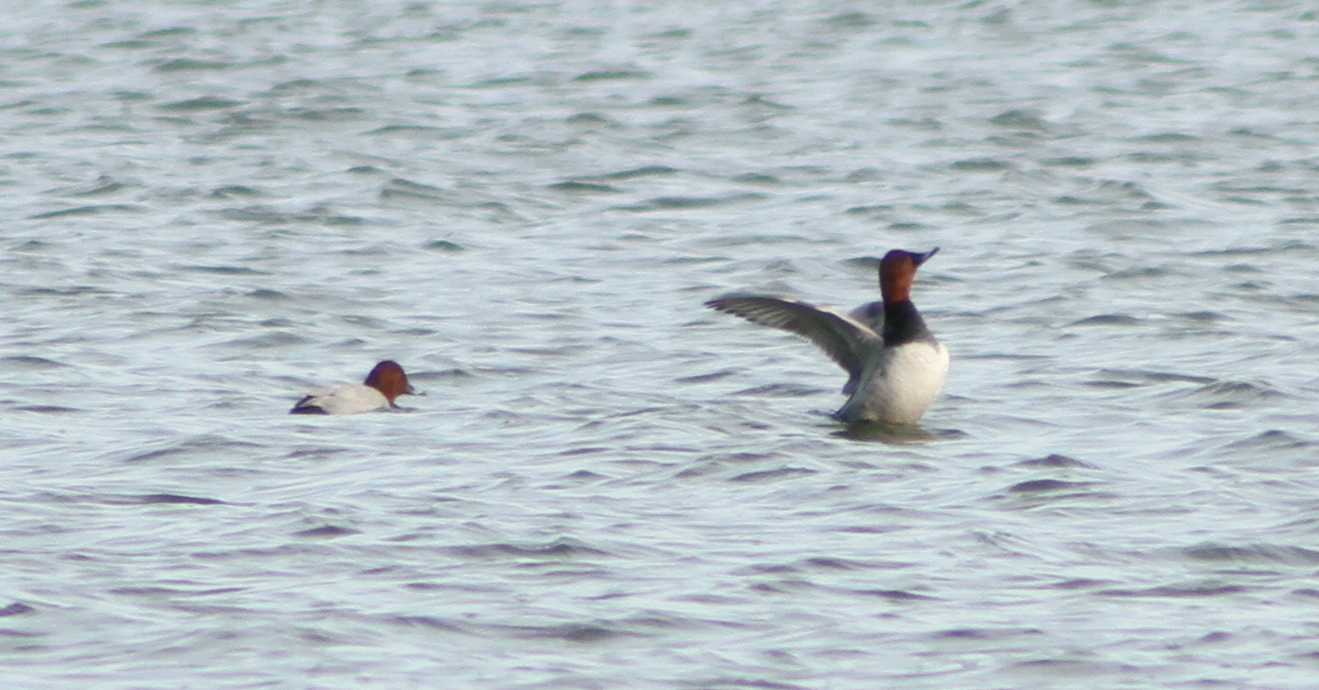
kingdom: Animalia
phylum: Chordata
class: Aves
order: Anseriformes
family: Anatidae
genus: Aythya
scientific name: Aythya ferina
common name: Common pochard
